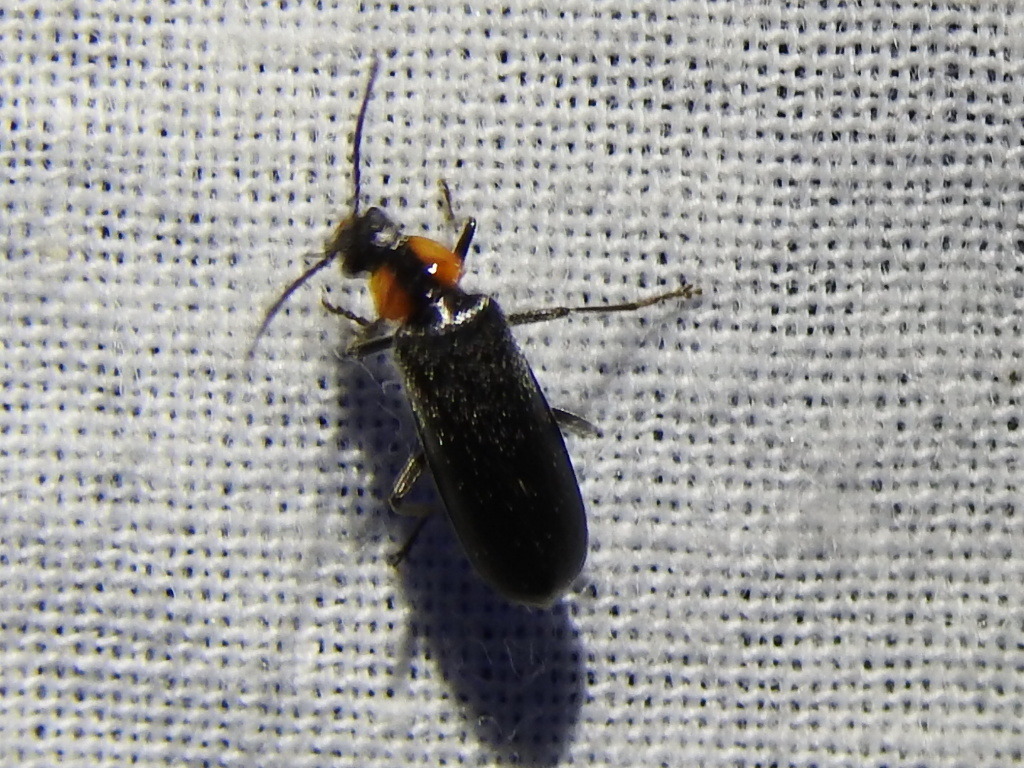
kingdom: Animalia
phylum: Arthropoda
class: Insecta
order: Coleoptera
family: Cantharidae
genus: Rhagonycha
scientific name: Rhagonycha lineola
